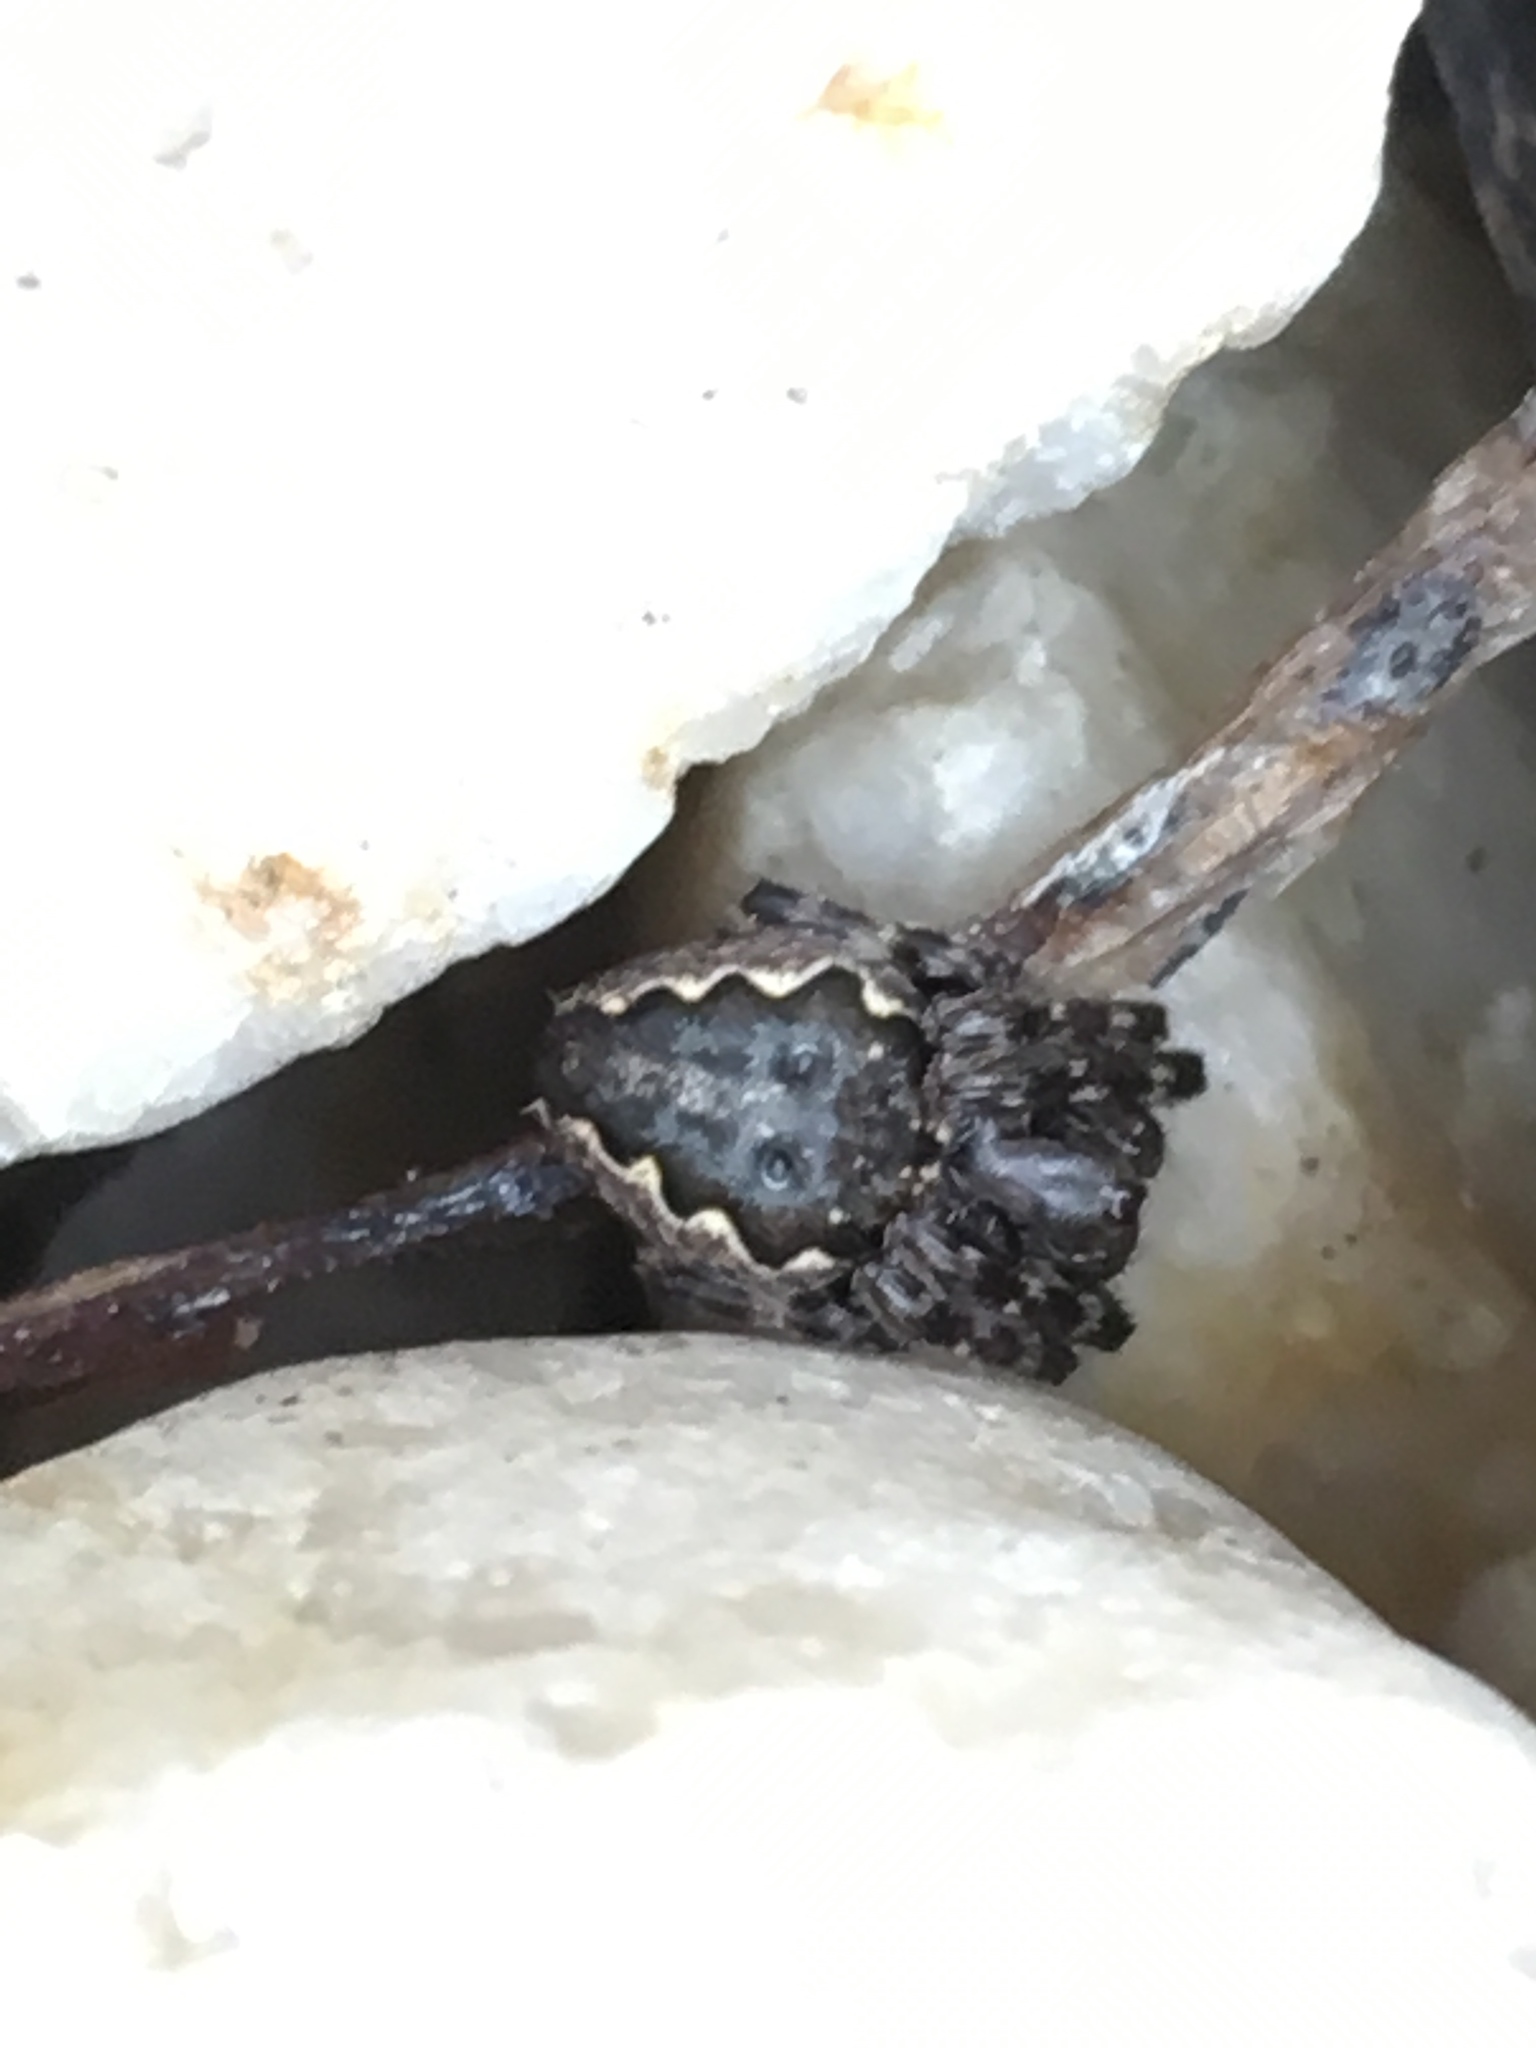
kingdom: Animalia
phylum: Arthropoda
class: Arachnida
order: Araneae
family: Araneidae
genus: Nuctenea
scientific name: Nuctenea umbratica
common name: Toad spider
